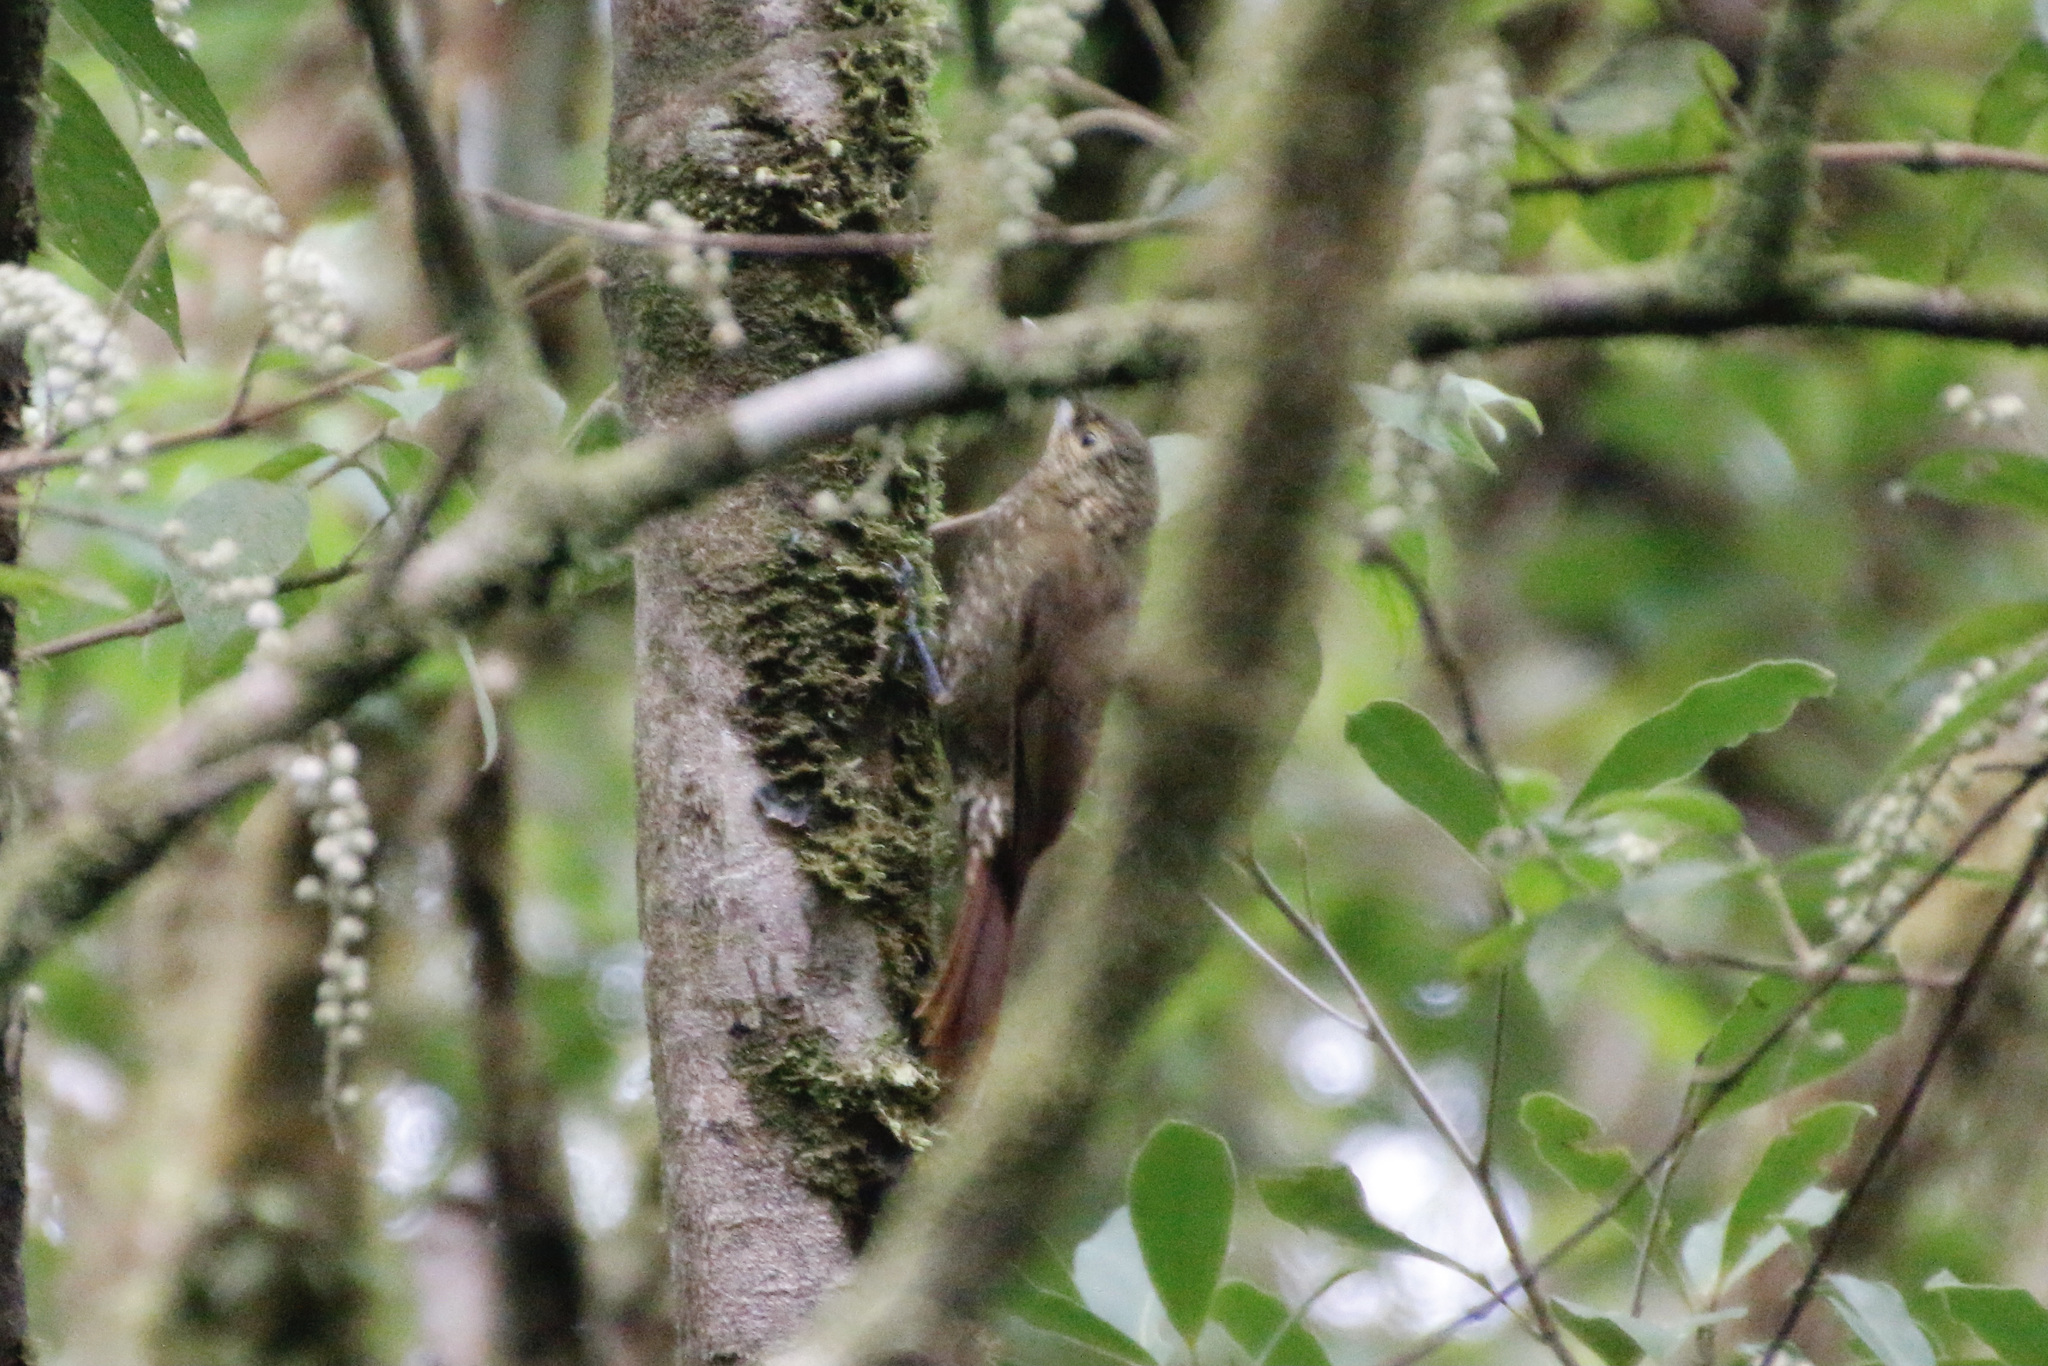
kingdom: Animalia
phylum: Chordata
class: Aves
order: Passeriformes
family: Furnariidae
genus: Xiphorhynchus
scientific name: Xiphorhynchus erythropygius
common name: Spotted woodcreeper
